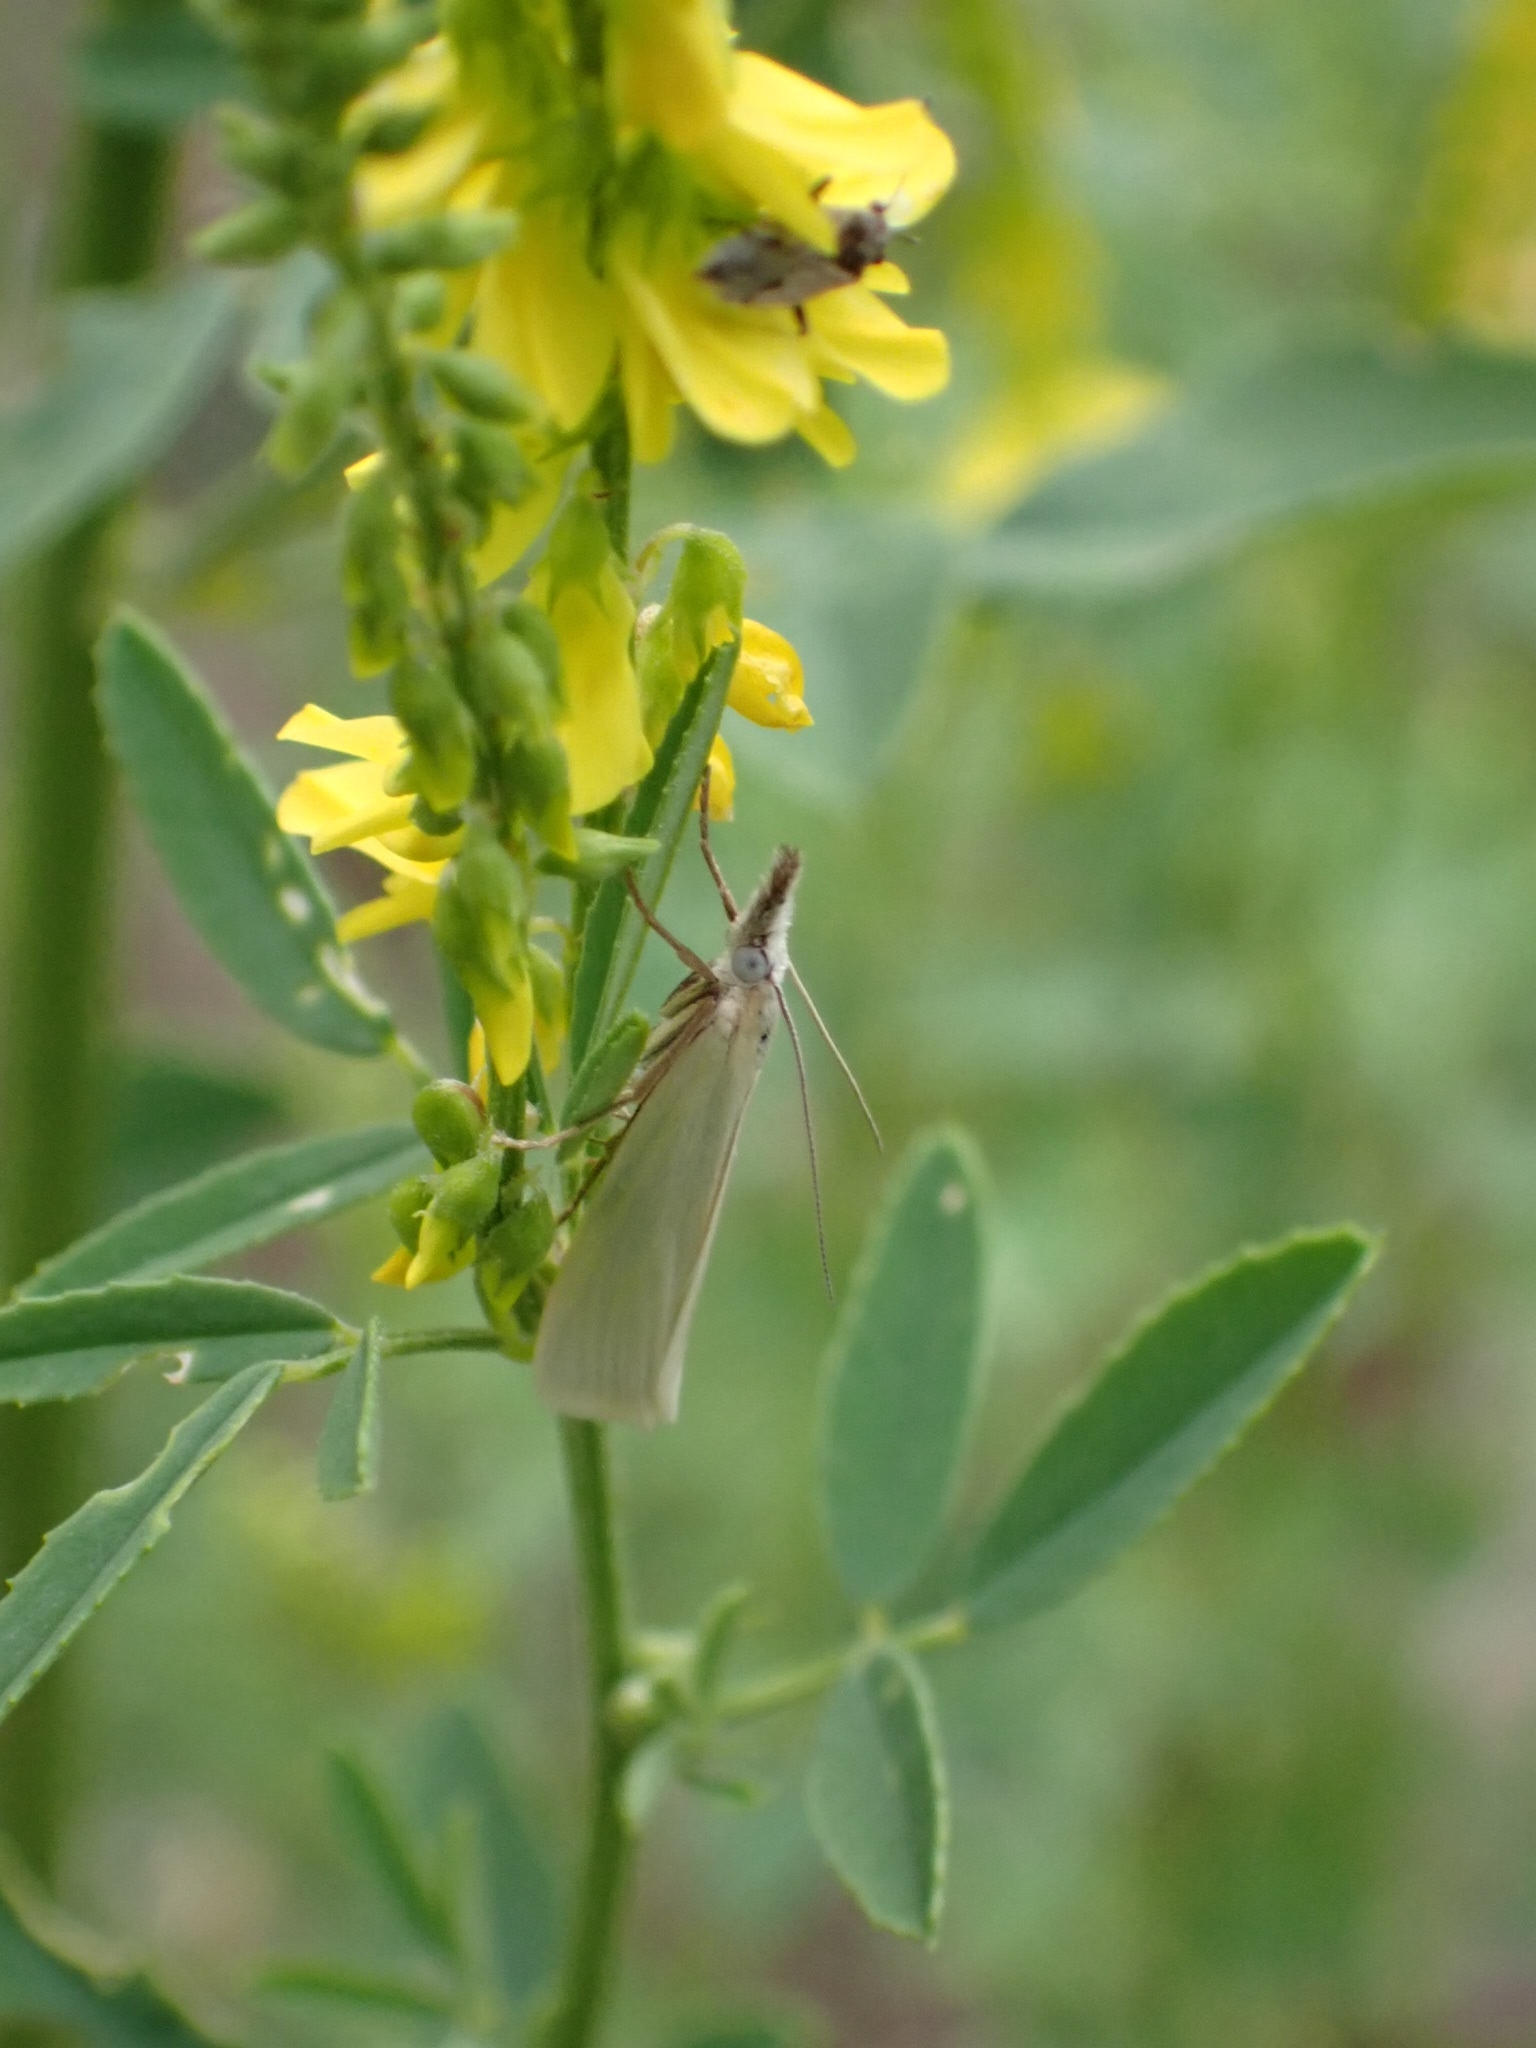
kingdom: Animalia
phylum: Arthropoda
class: Insecta
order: Lepidoptera
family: Crambidae
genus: Crambus
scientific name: Crambus perlellus
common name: Yellow satin veneer
